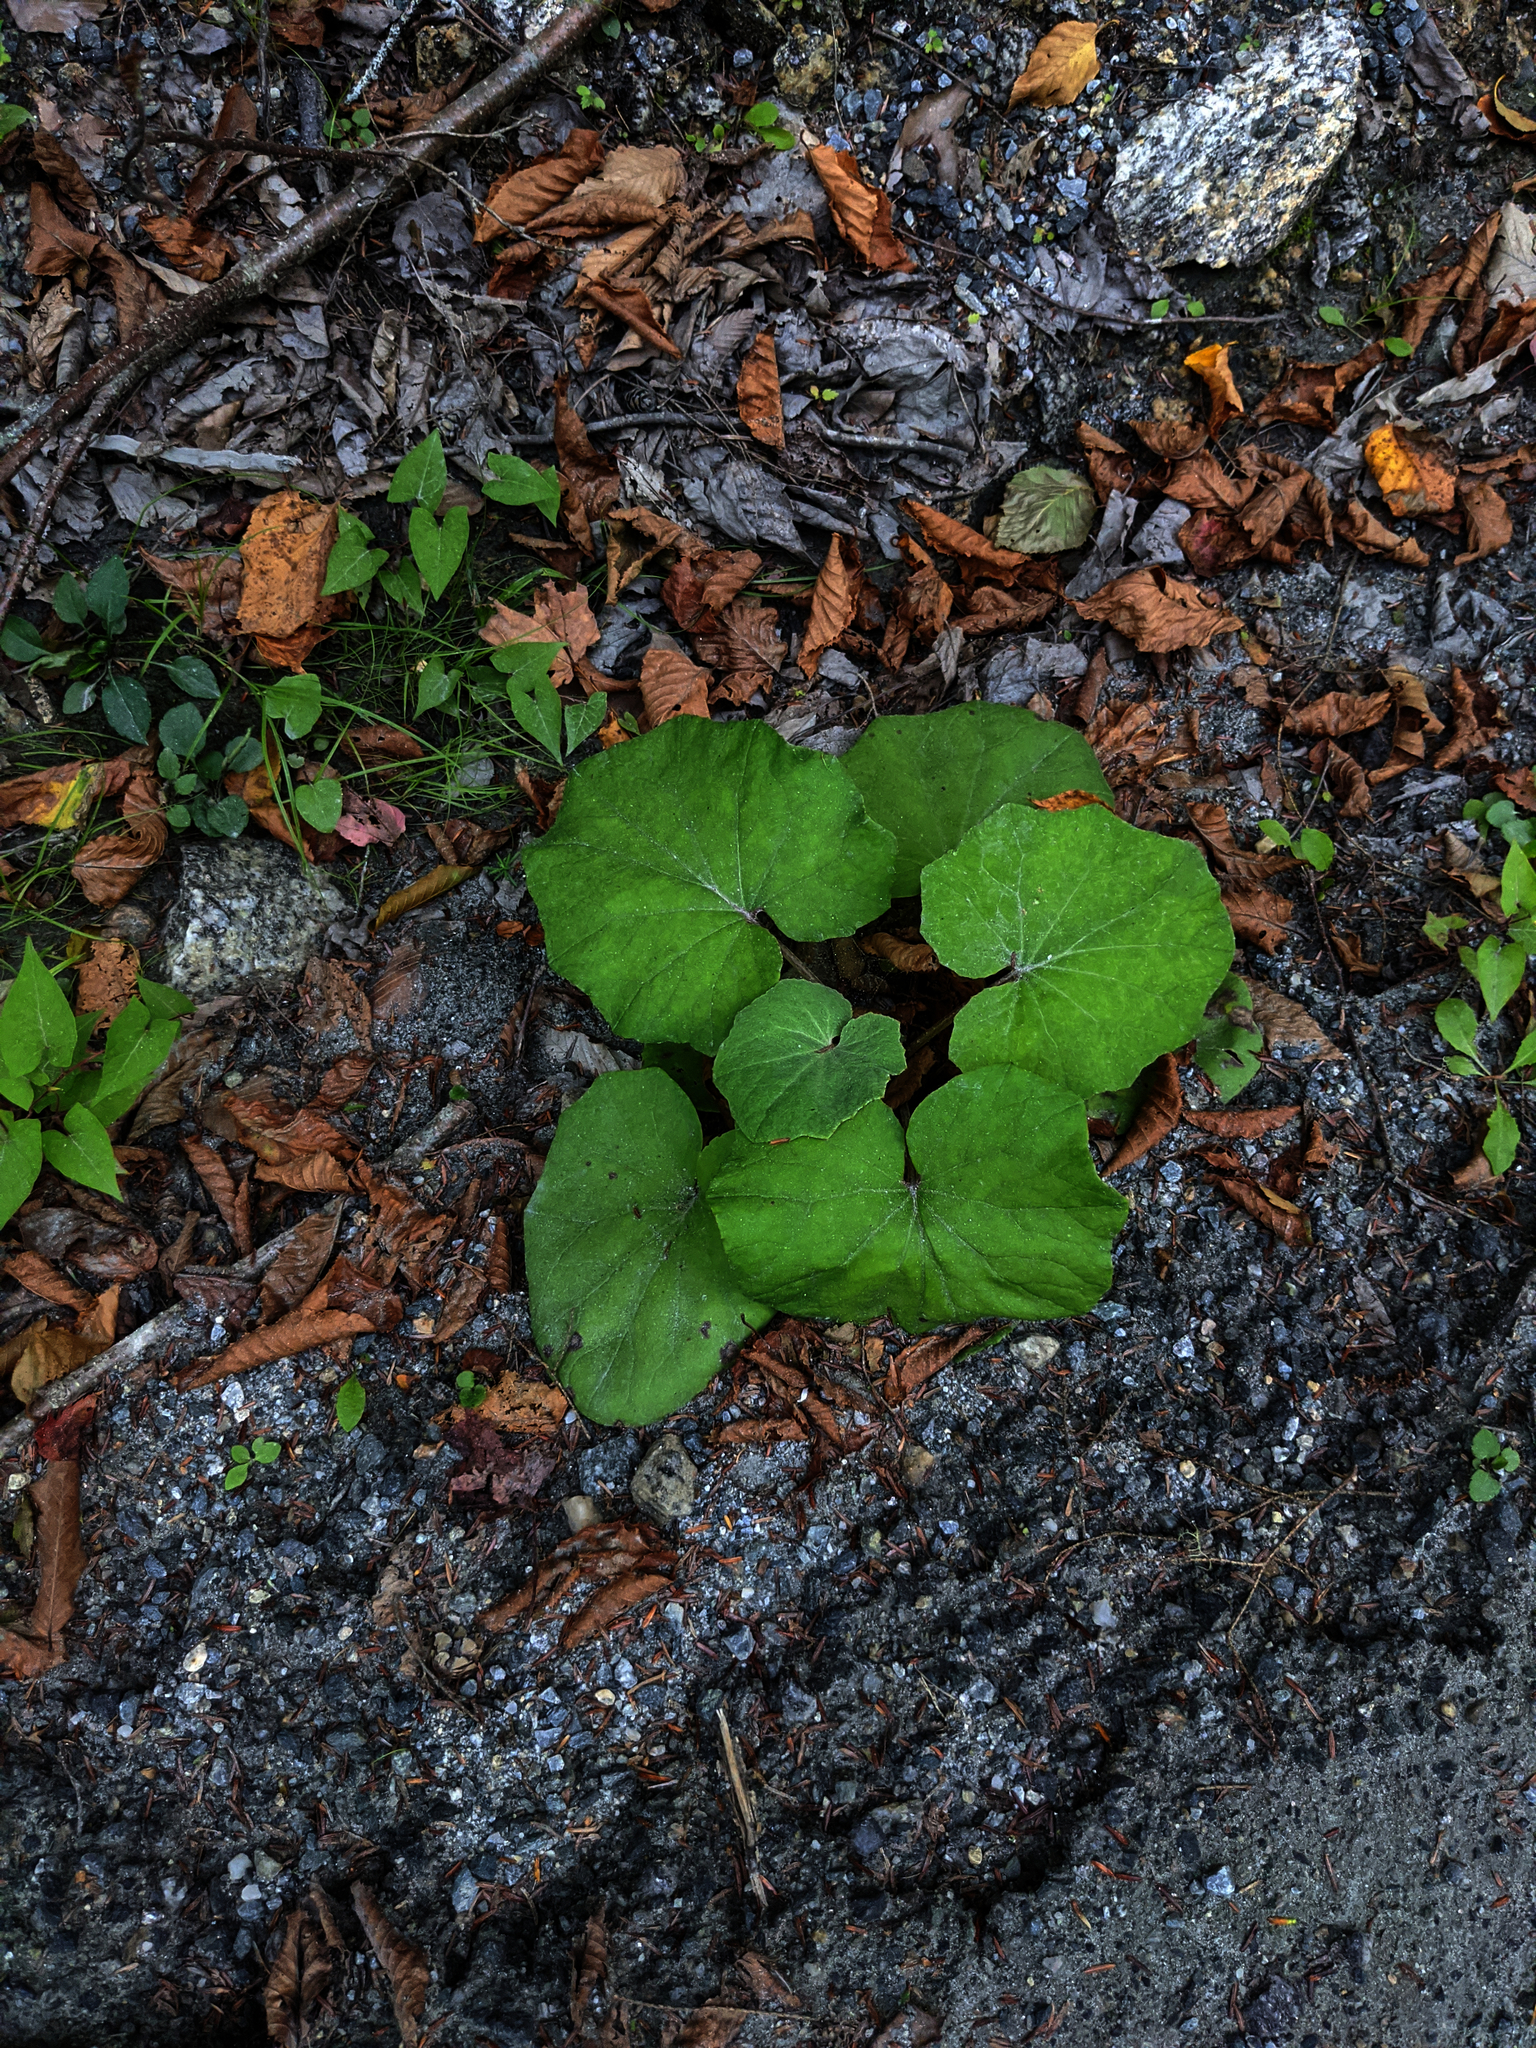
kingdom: Plantae
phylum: Tracheophyta
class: Magnoliopsida
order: Asterales
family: Asteraceae
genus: Tussilago
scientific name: Tussilago farfara
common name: Coltsfoot
